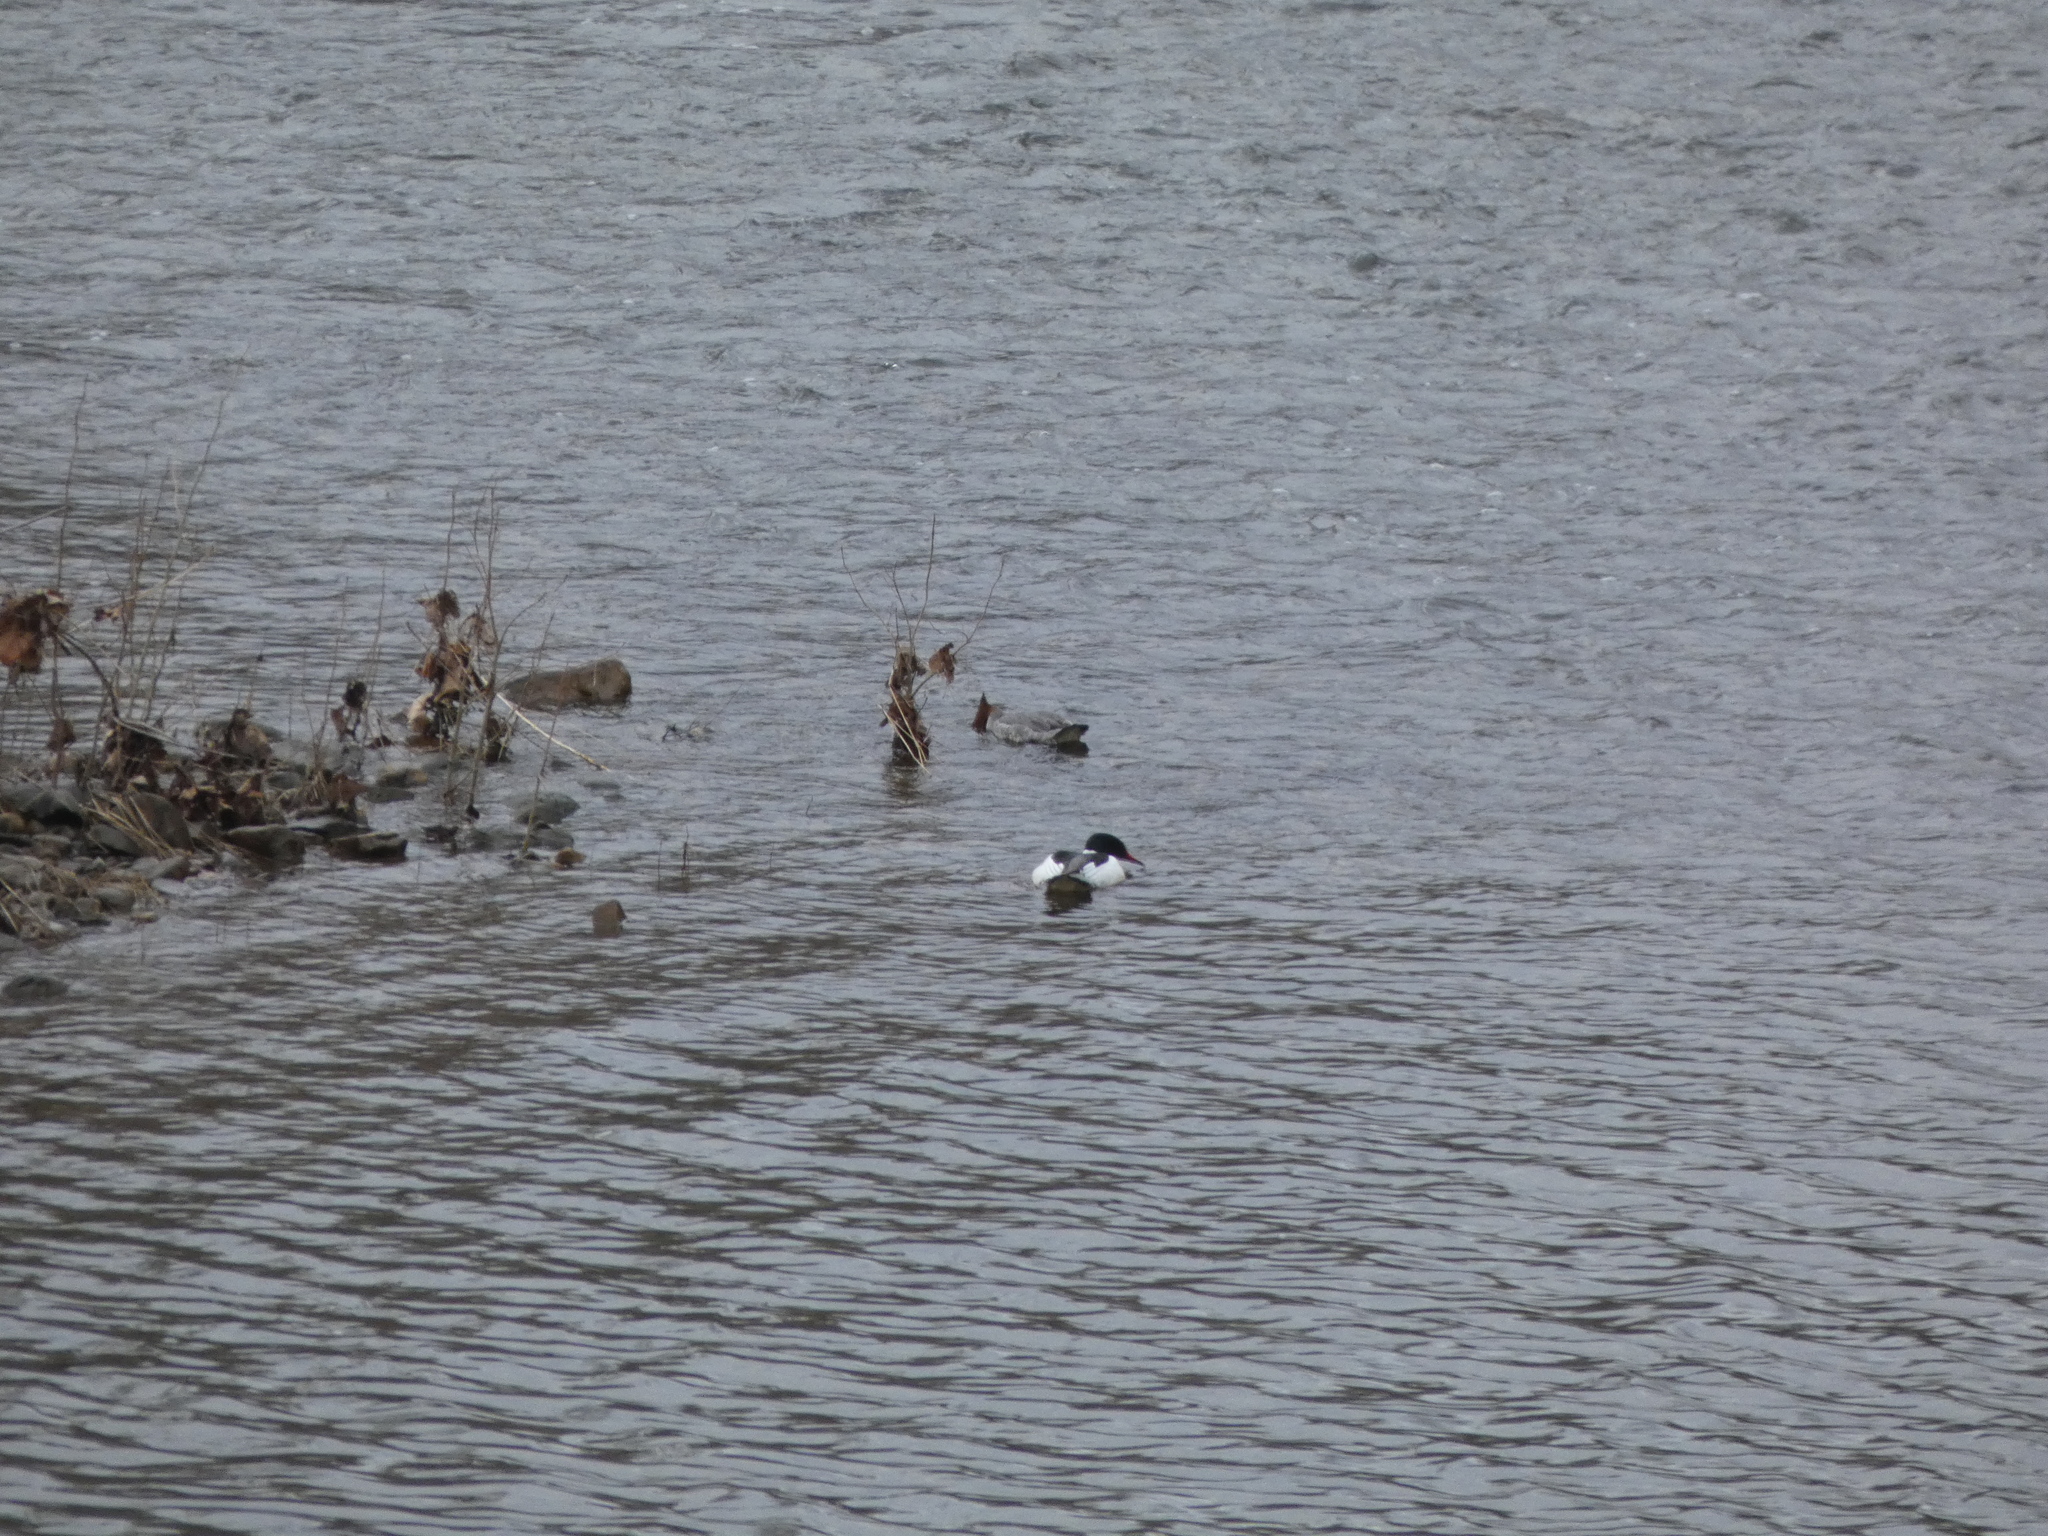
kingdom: Animalia
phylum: Chordata
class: Aves
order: Anseriformes
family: Anatidae
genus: Mergus
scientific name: Mergus merganser
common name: Common merganser
